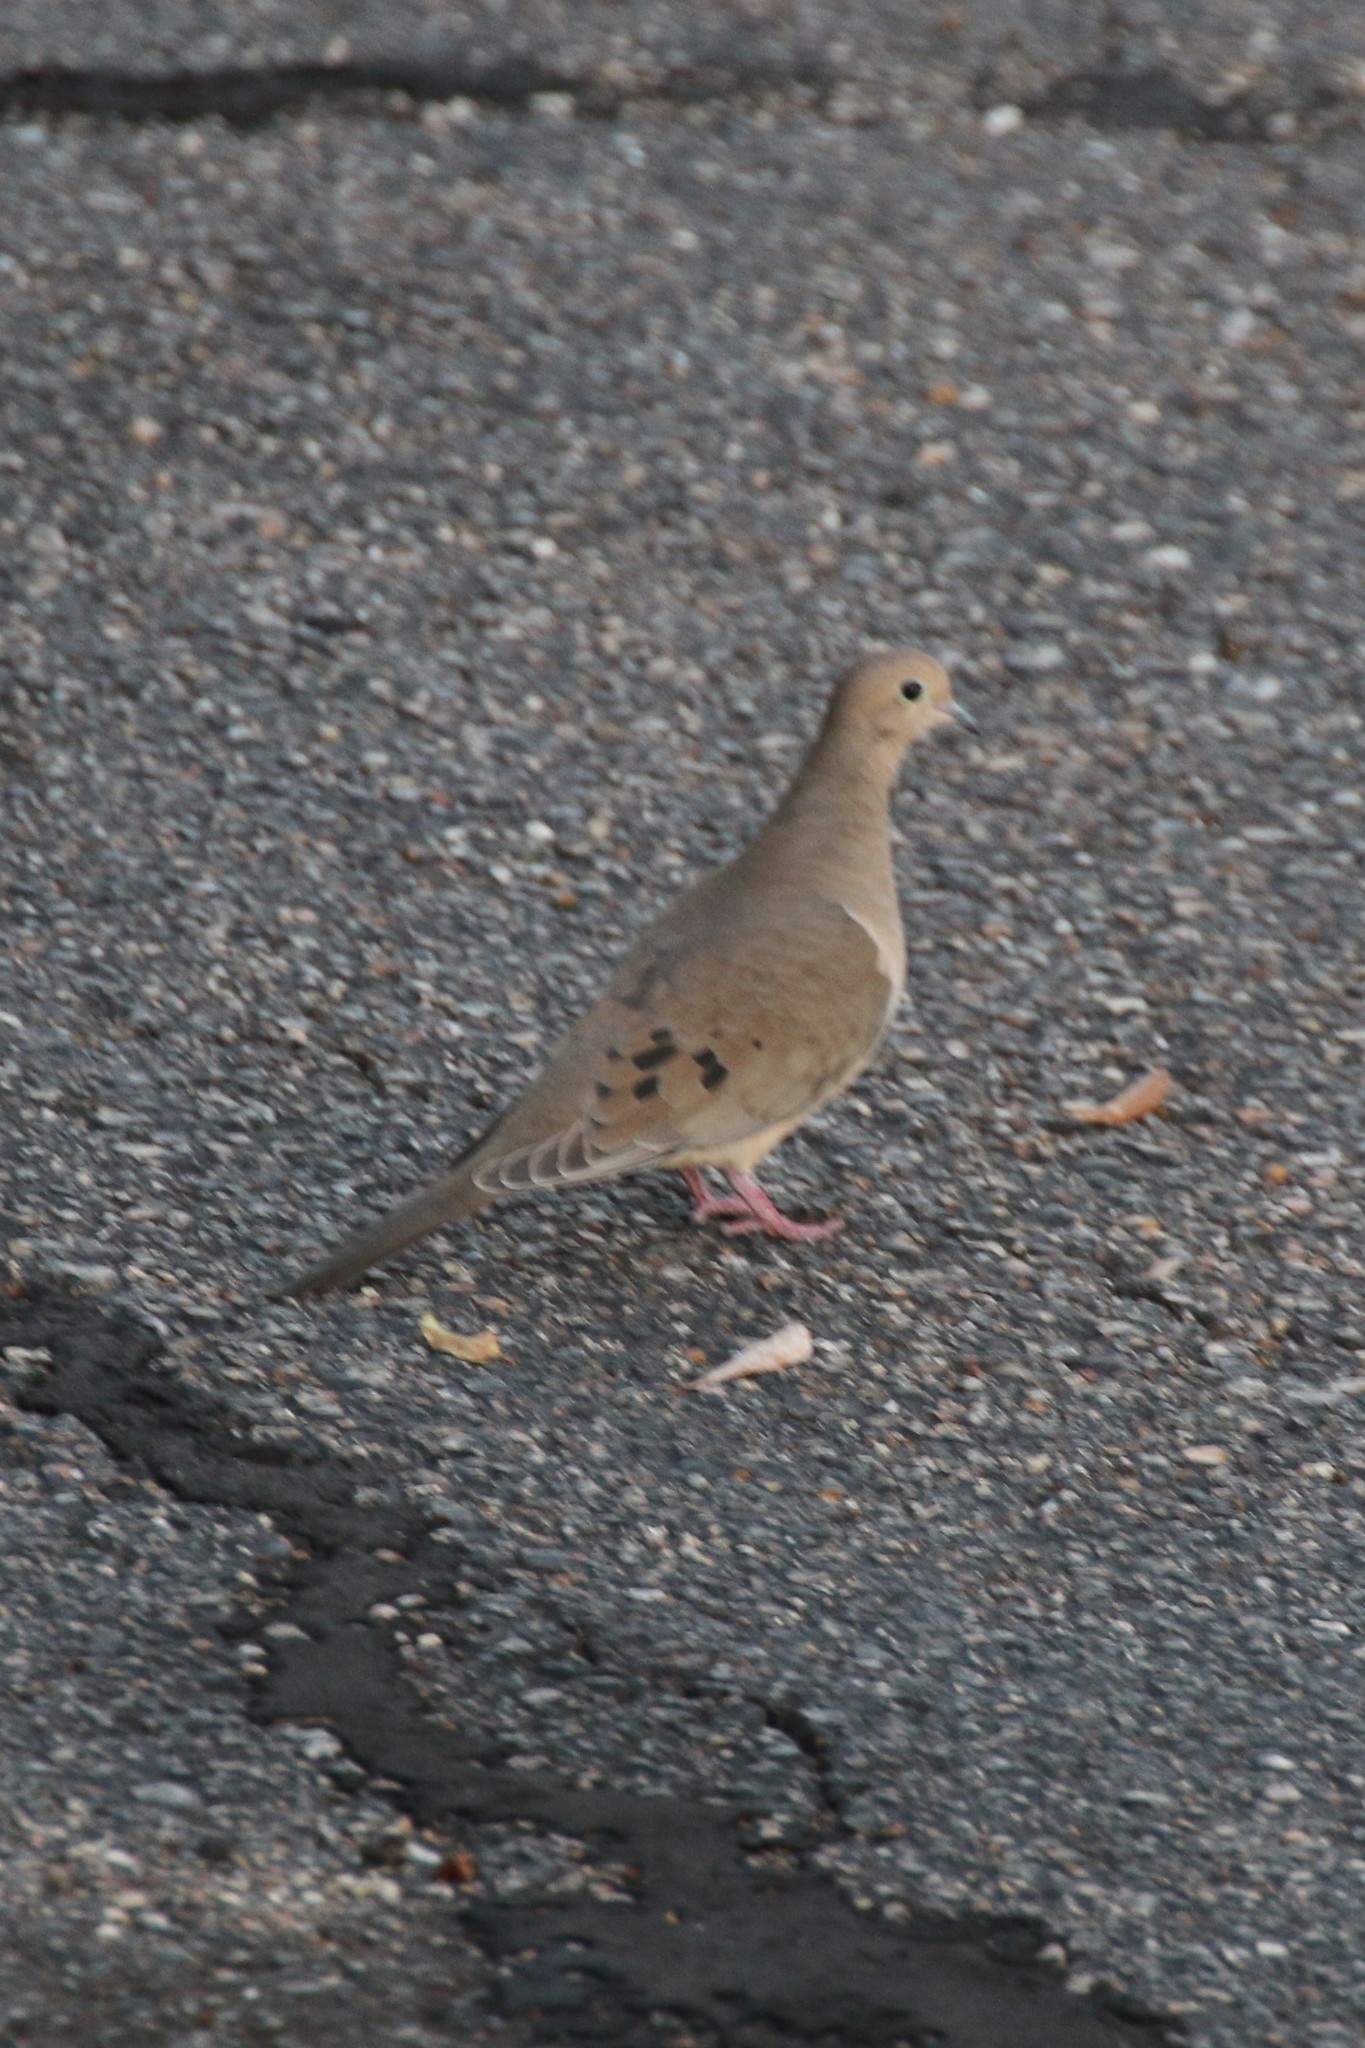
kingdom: Animalia
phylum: Chordata
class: Aves
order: Columbiformes
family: Columbidae
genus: Zenaida
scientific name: Zenaida macroura
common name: Mourning dove
